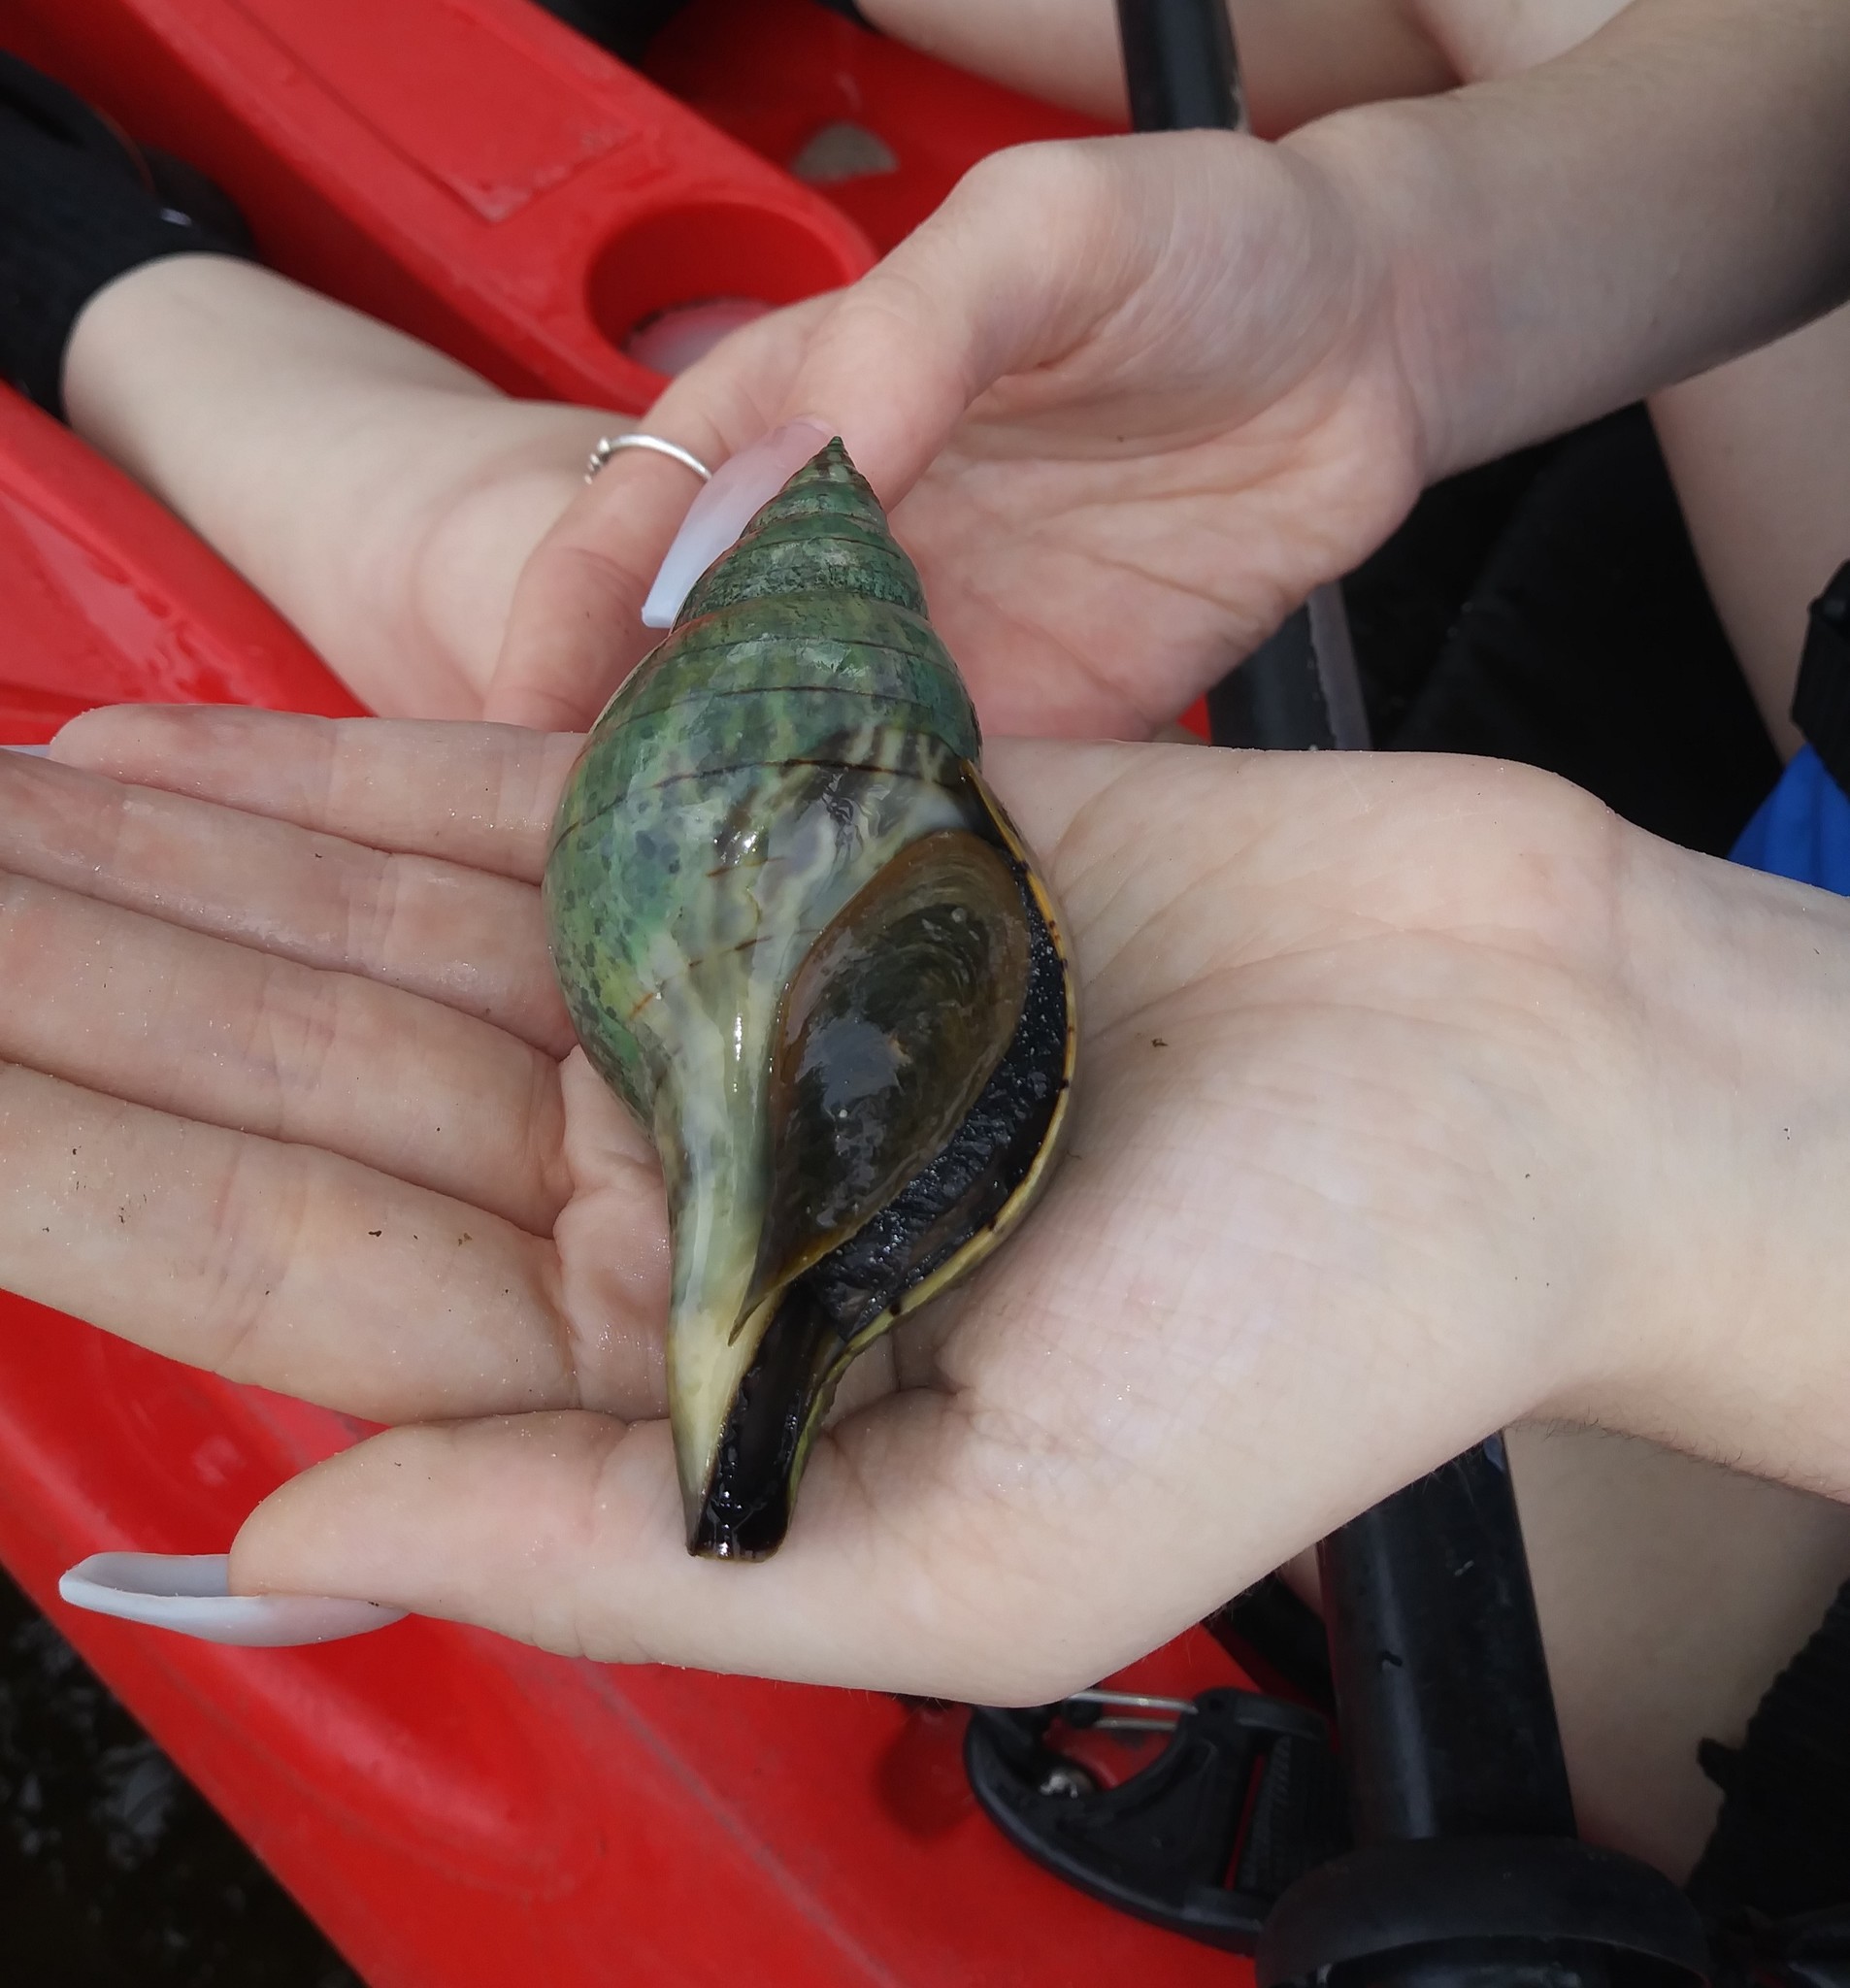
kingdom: Animalia
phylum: Mollusca
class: Gastropoda
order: Neogastropoda
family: Fasciolariidae
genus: Cinctura
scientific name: Cinctura hunteria
